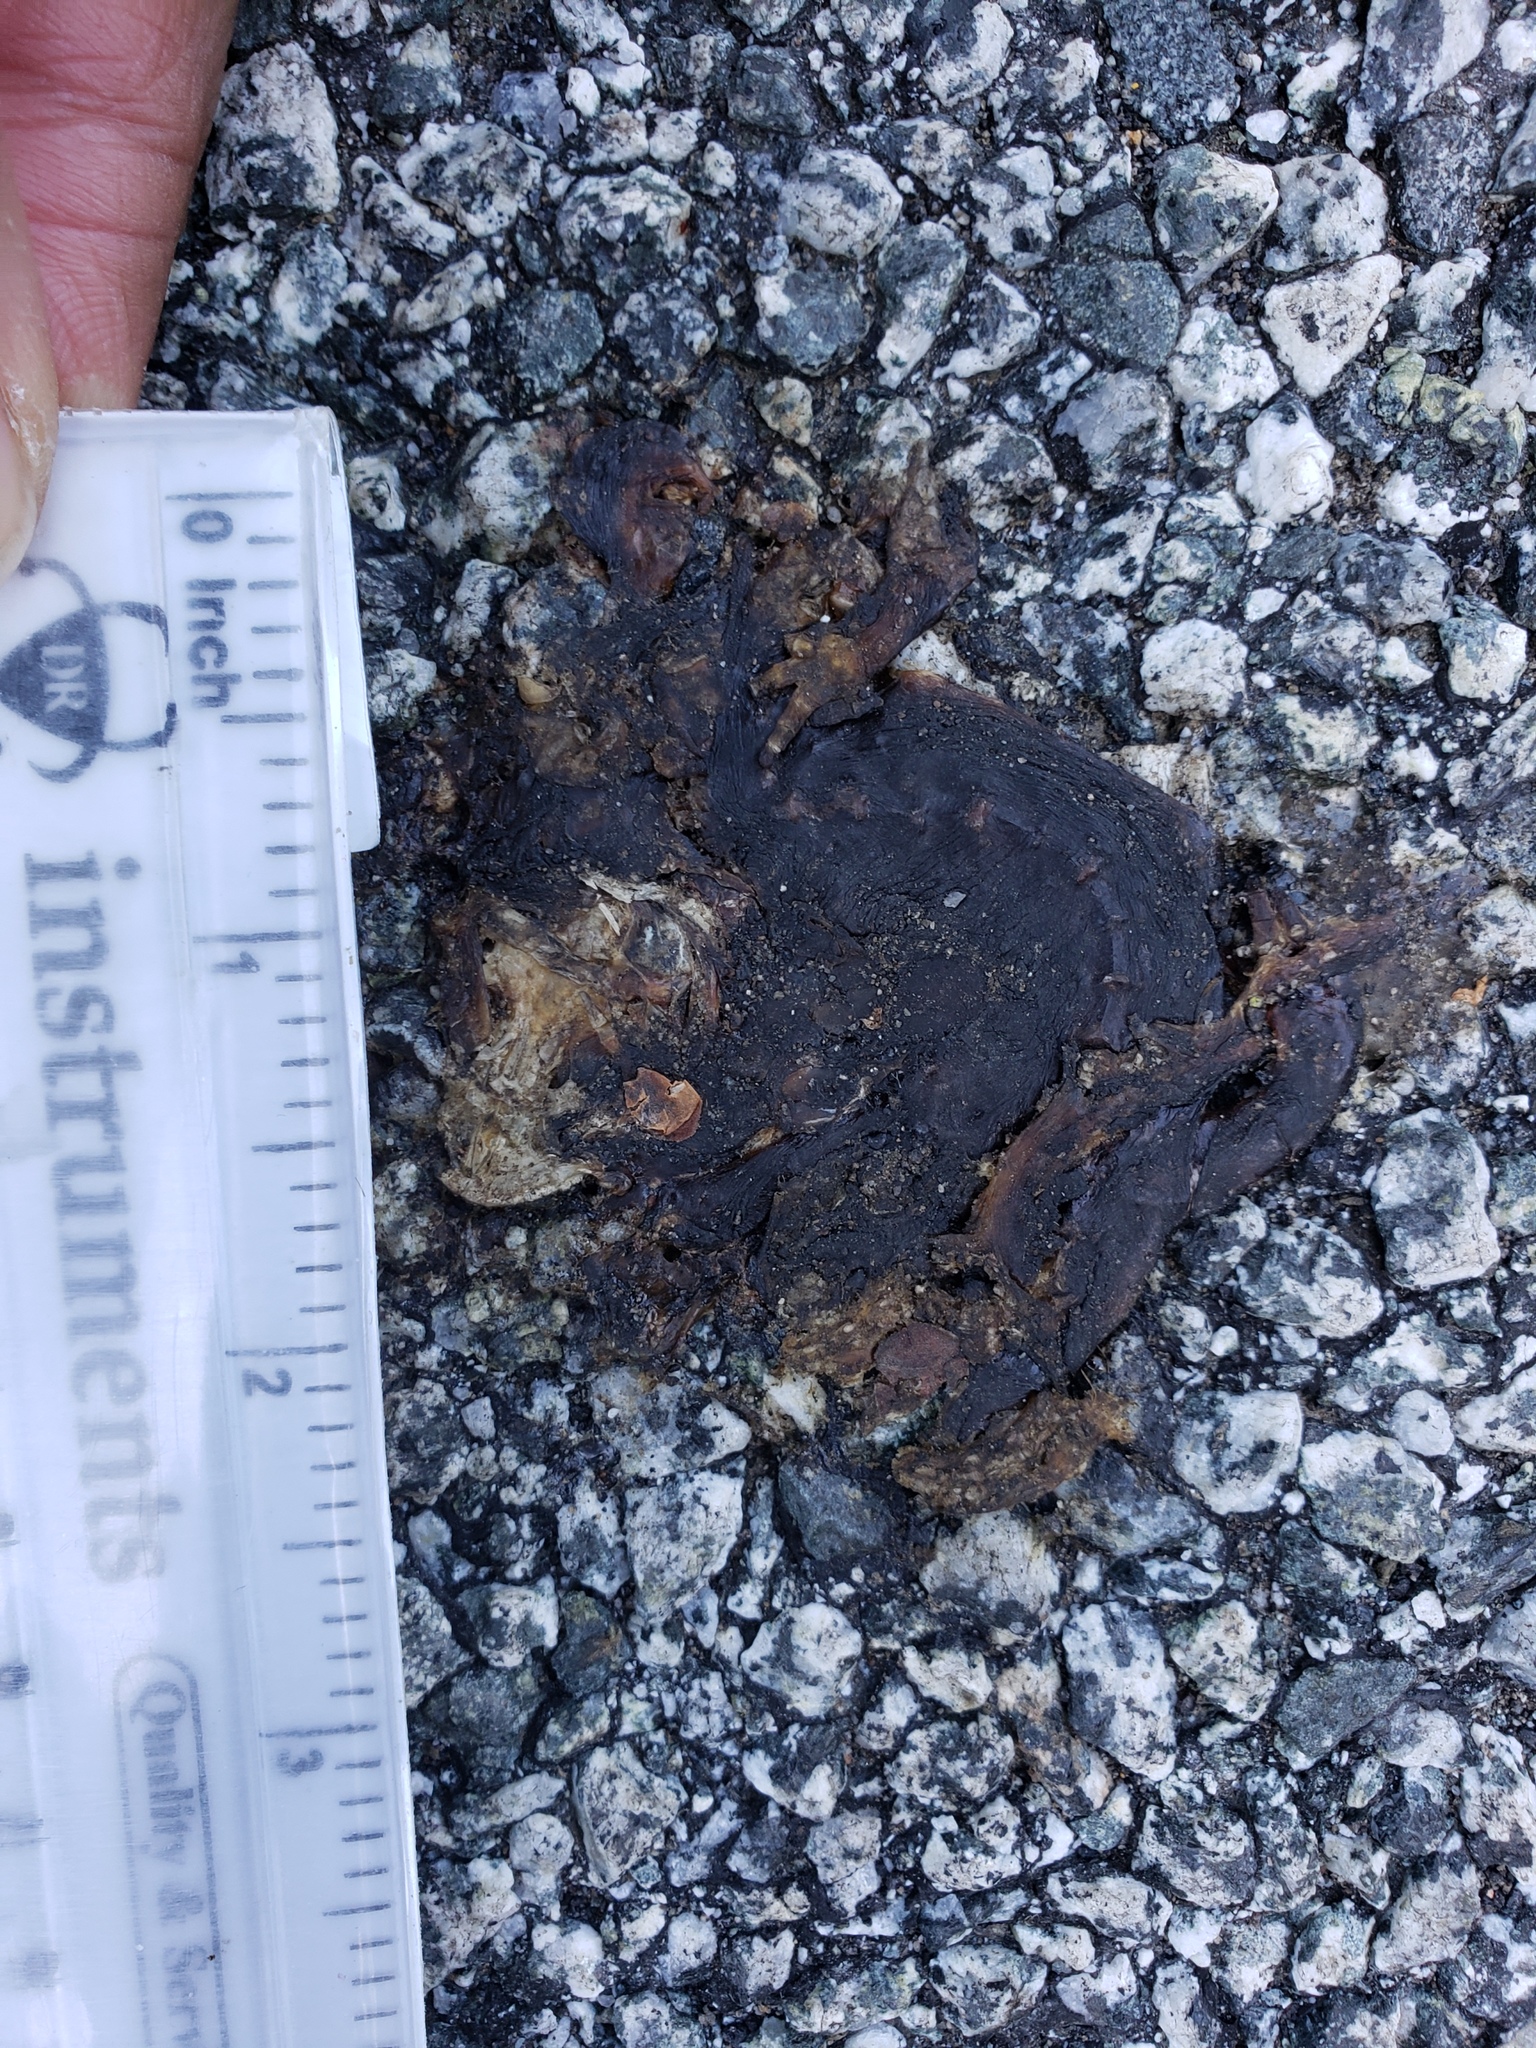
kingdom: Animalia
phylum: Chordata
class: Amphibia
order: Caudata
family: Salamandridae
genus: Taricha
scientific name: Taricha
